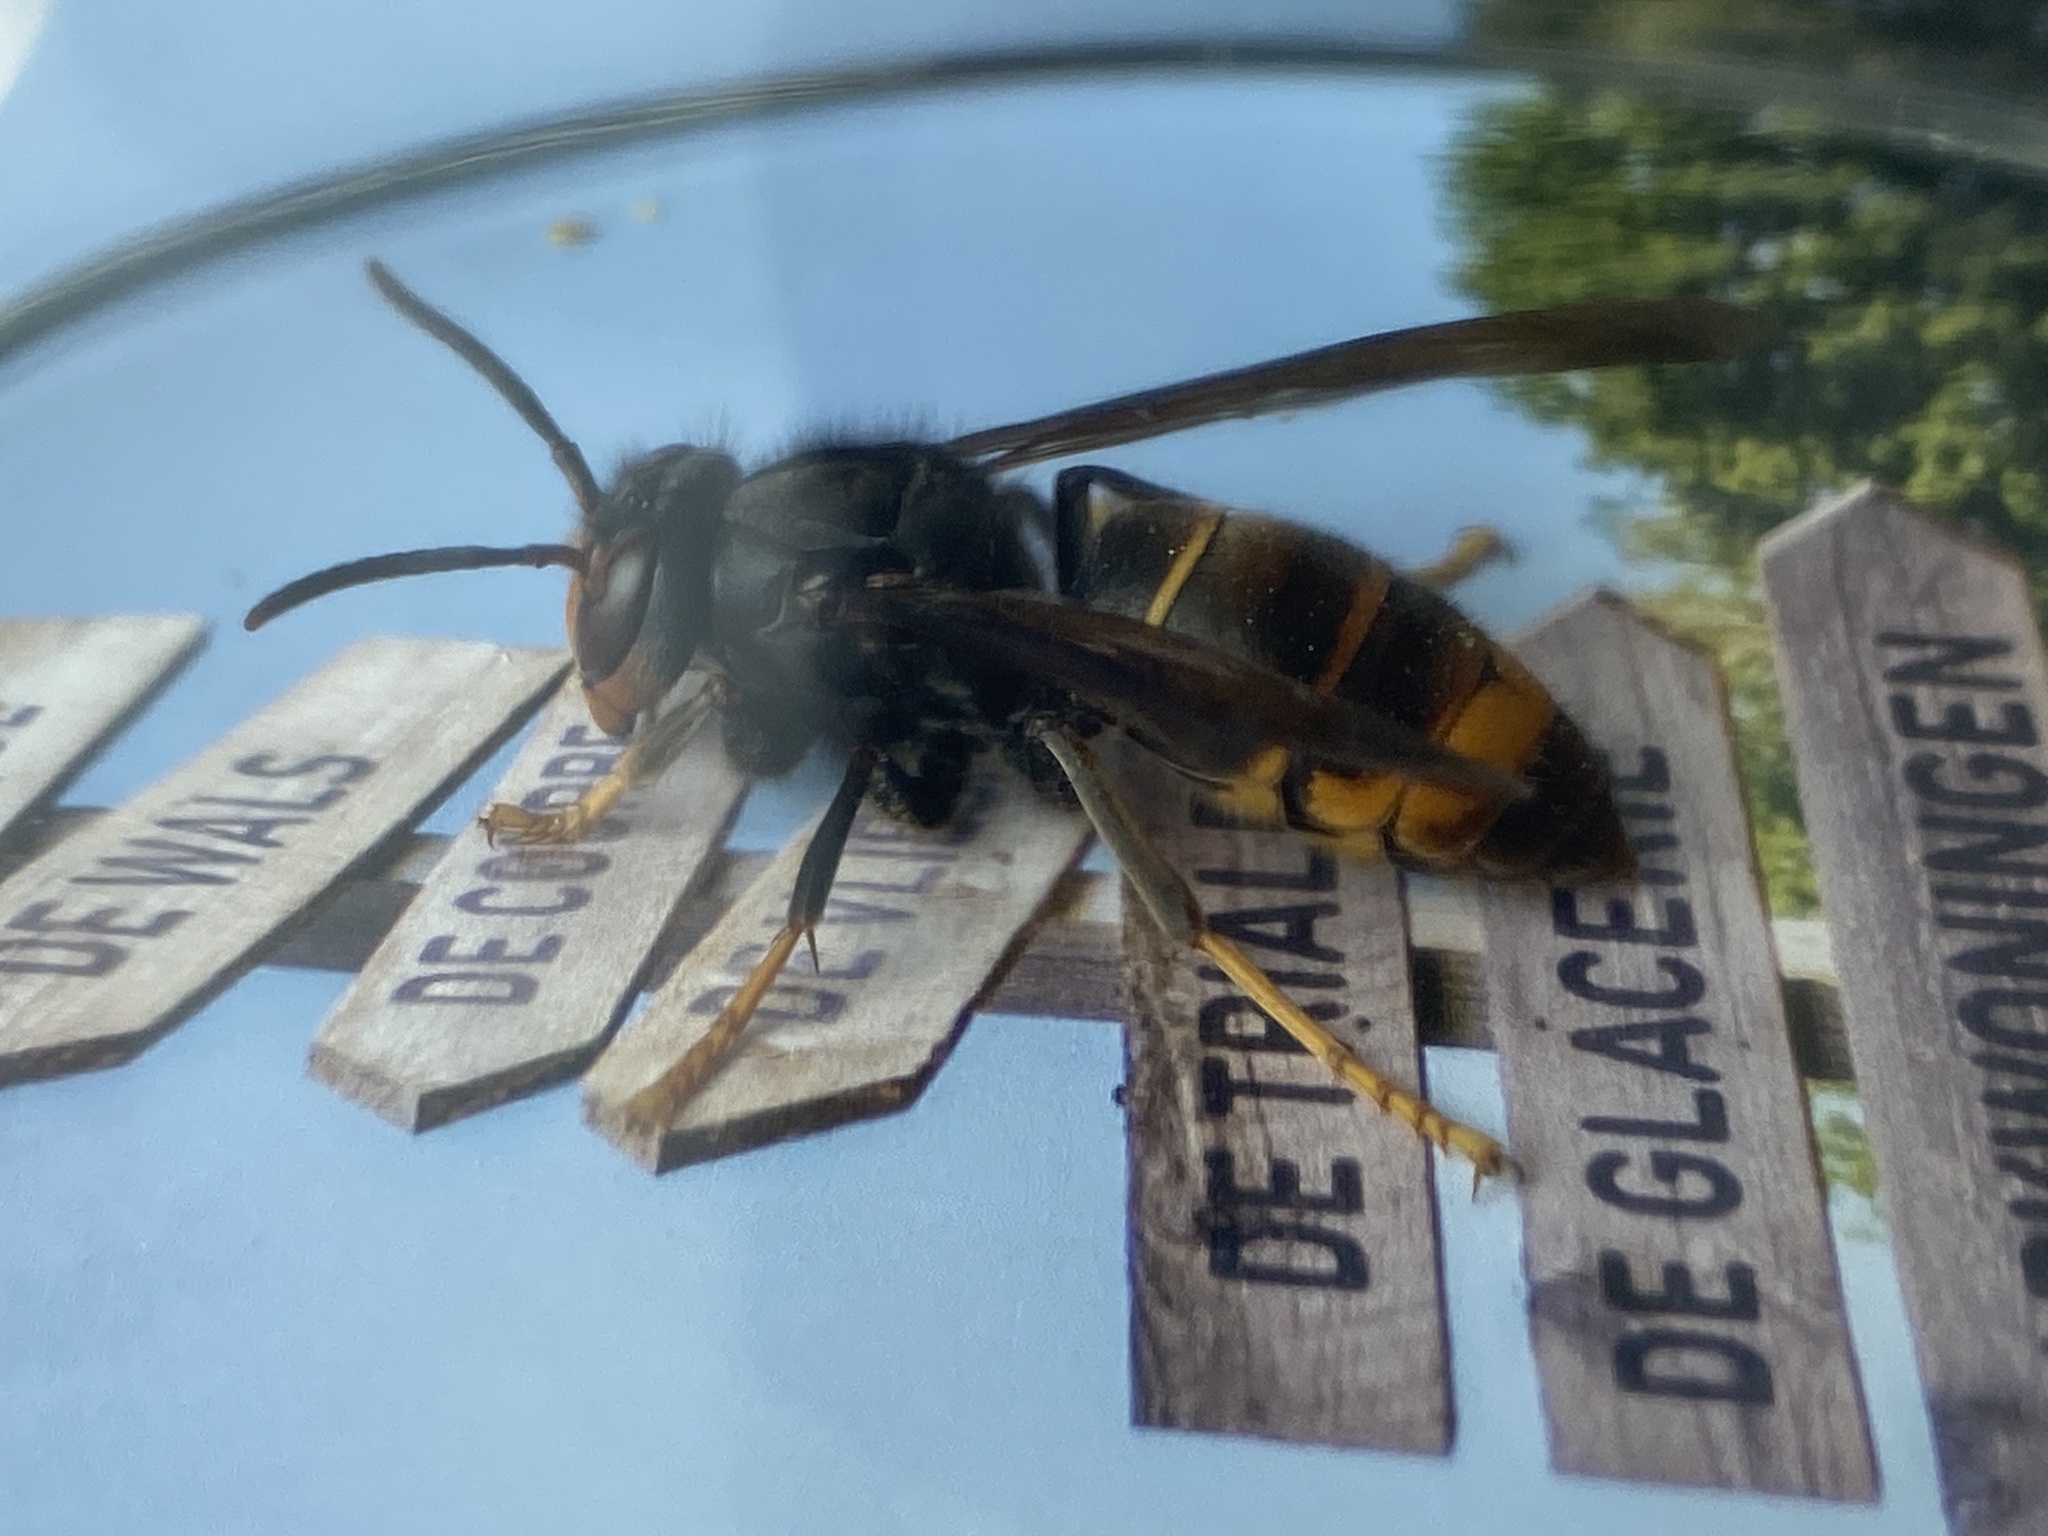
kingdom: Animalia
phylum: Arthropoda
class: Insecta
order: Hymenoptera
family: Vespidae
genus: Vespa
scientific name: Vespa velutina
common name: Asian hornet
